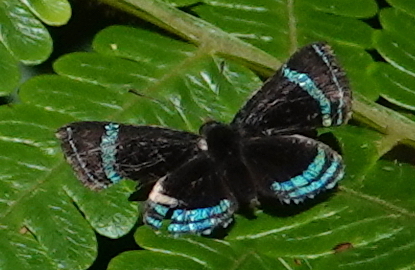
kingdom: Animalia
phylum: Arthropoda
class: Insecta
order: Lepidoptera
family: Riodinidae
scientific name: Riodinidae
